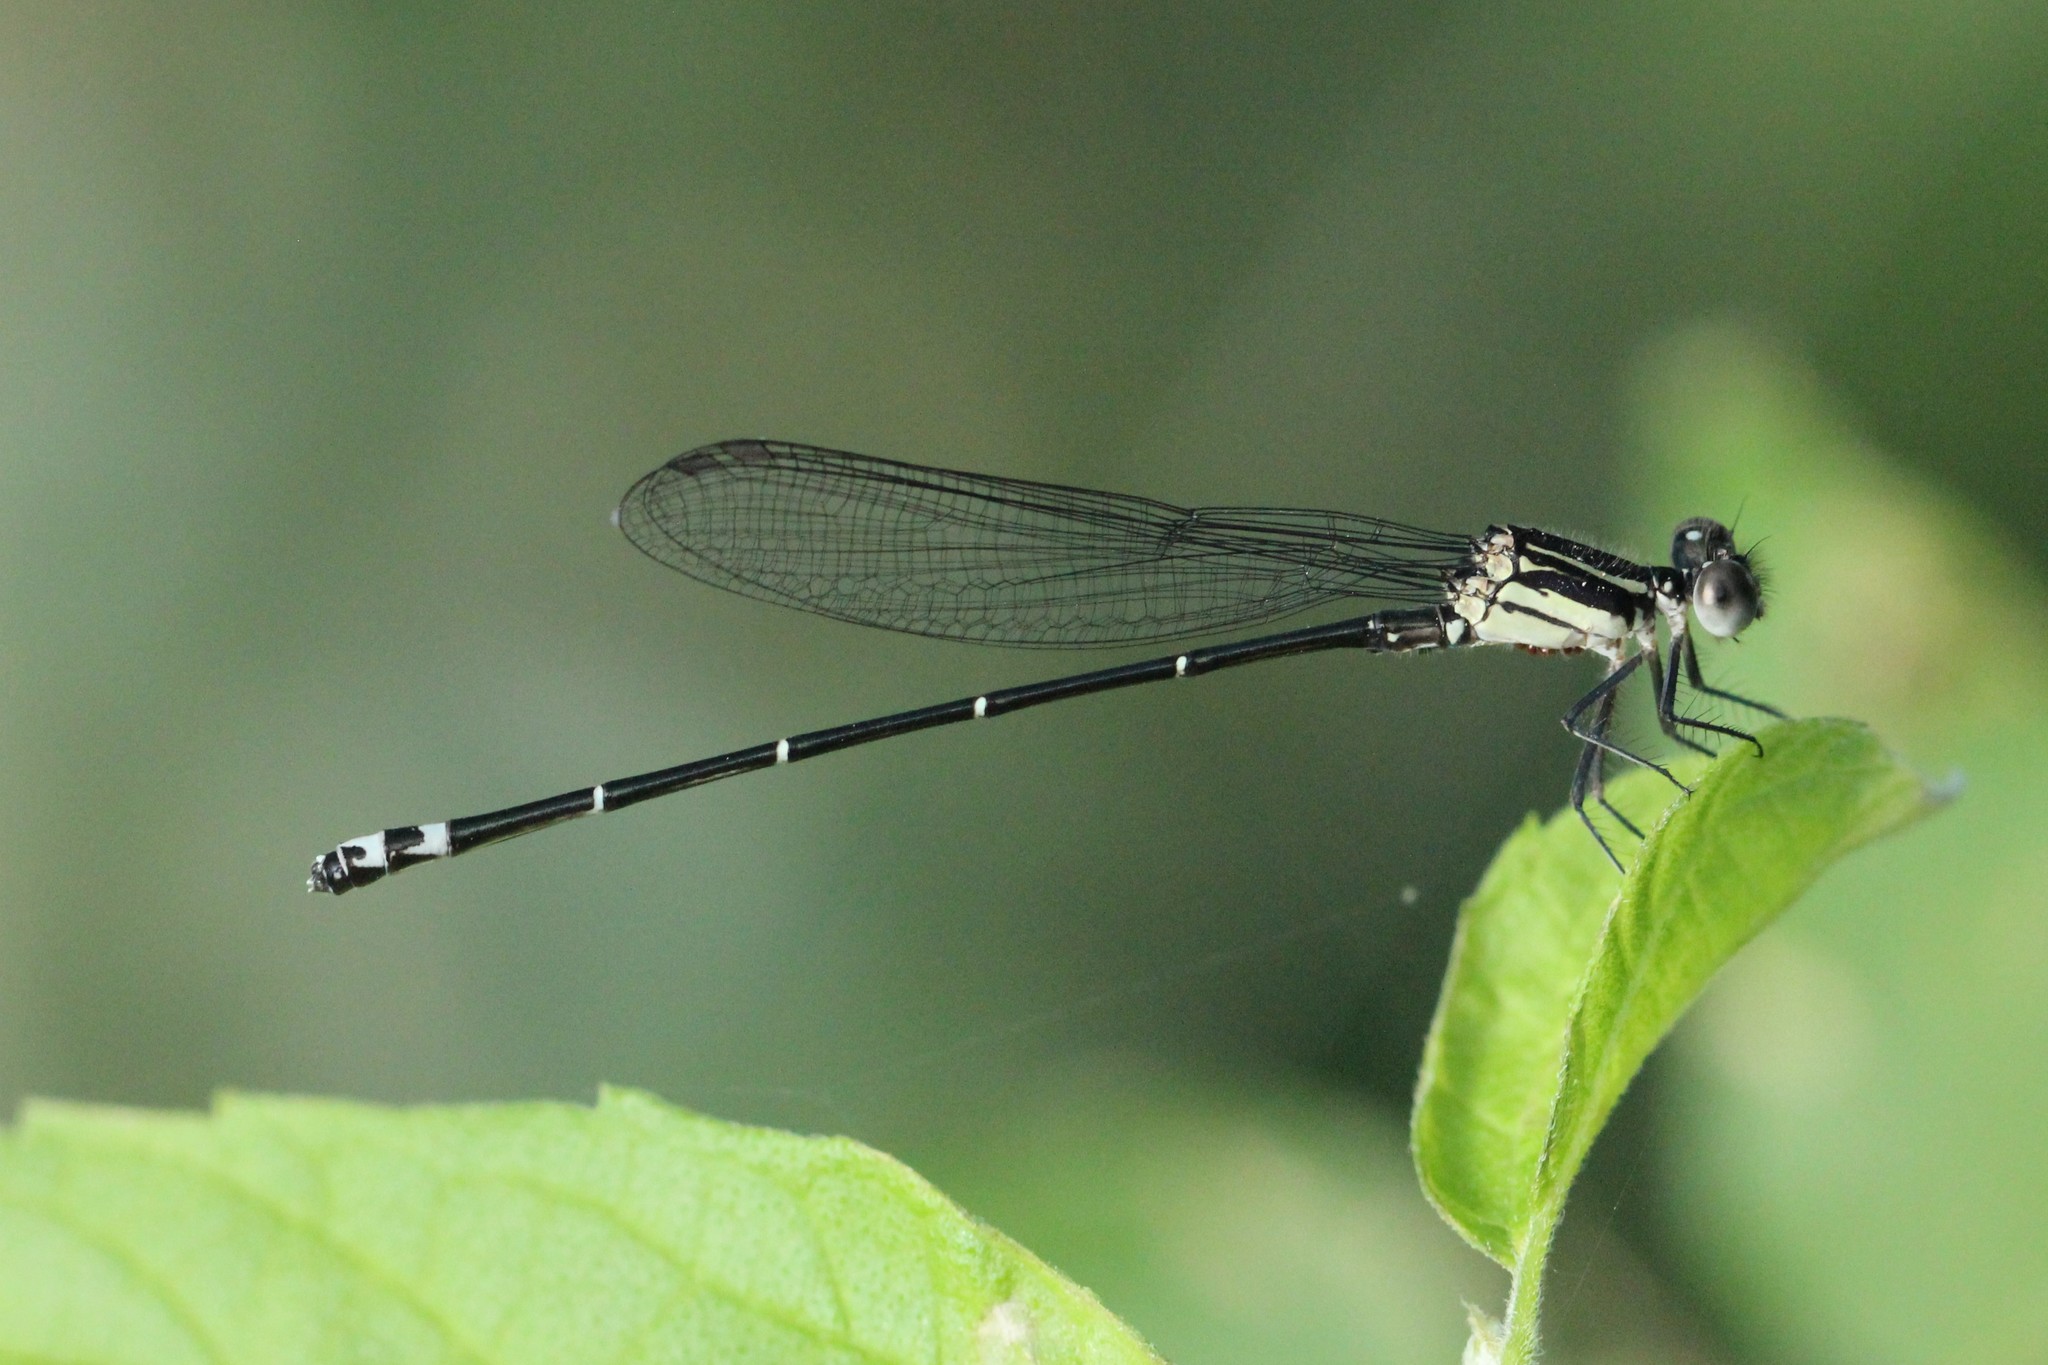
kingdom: Animalia
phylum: Arthropoda
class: Insecta
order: Odonata
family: Coenagrionidae
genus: Argia
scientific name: Argia translata
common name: Dusky dancer
